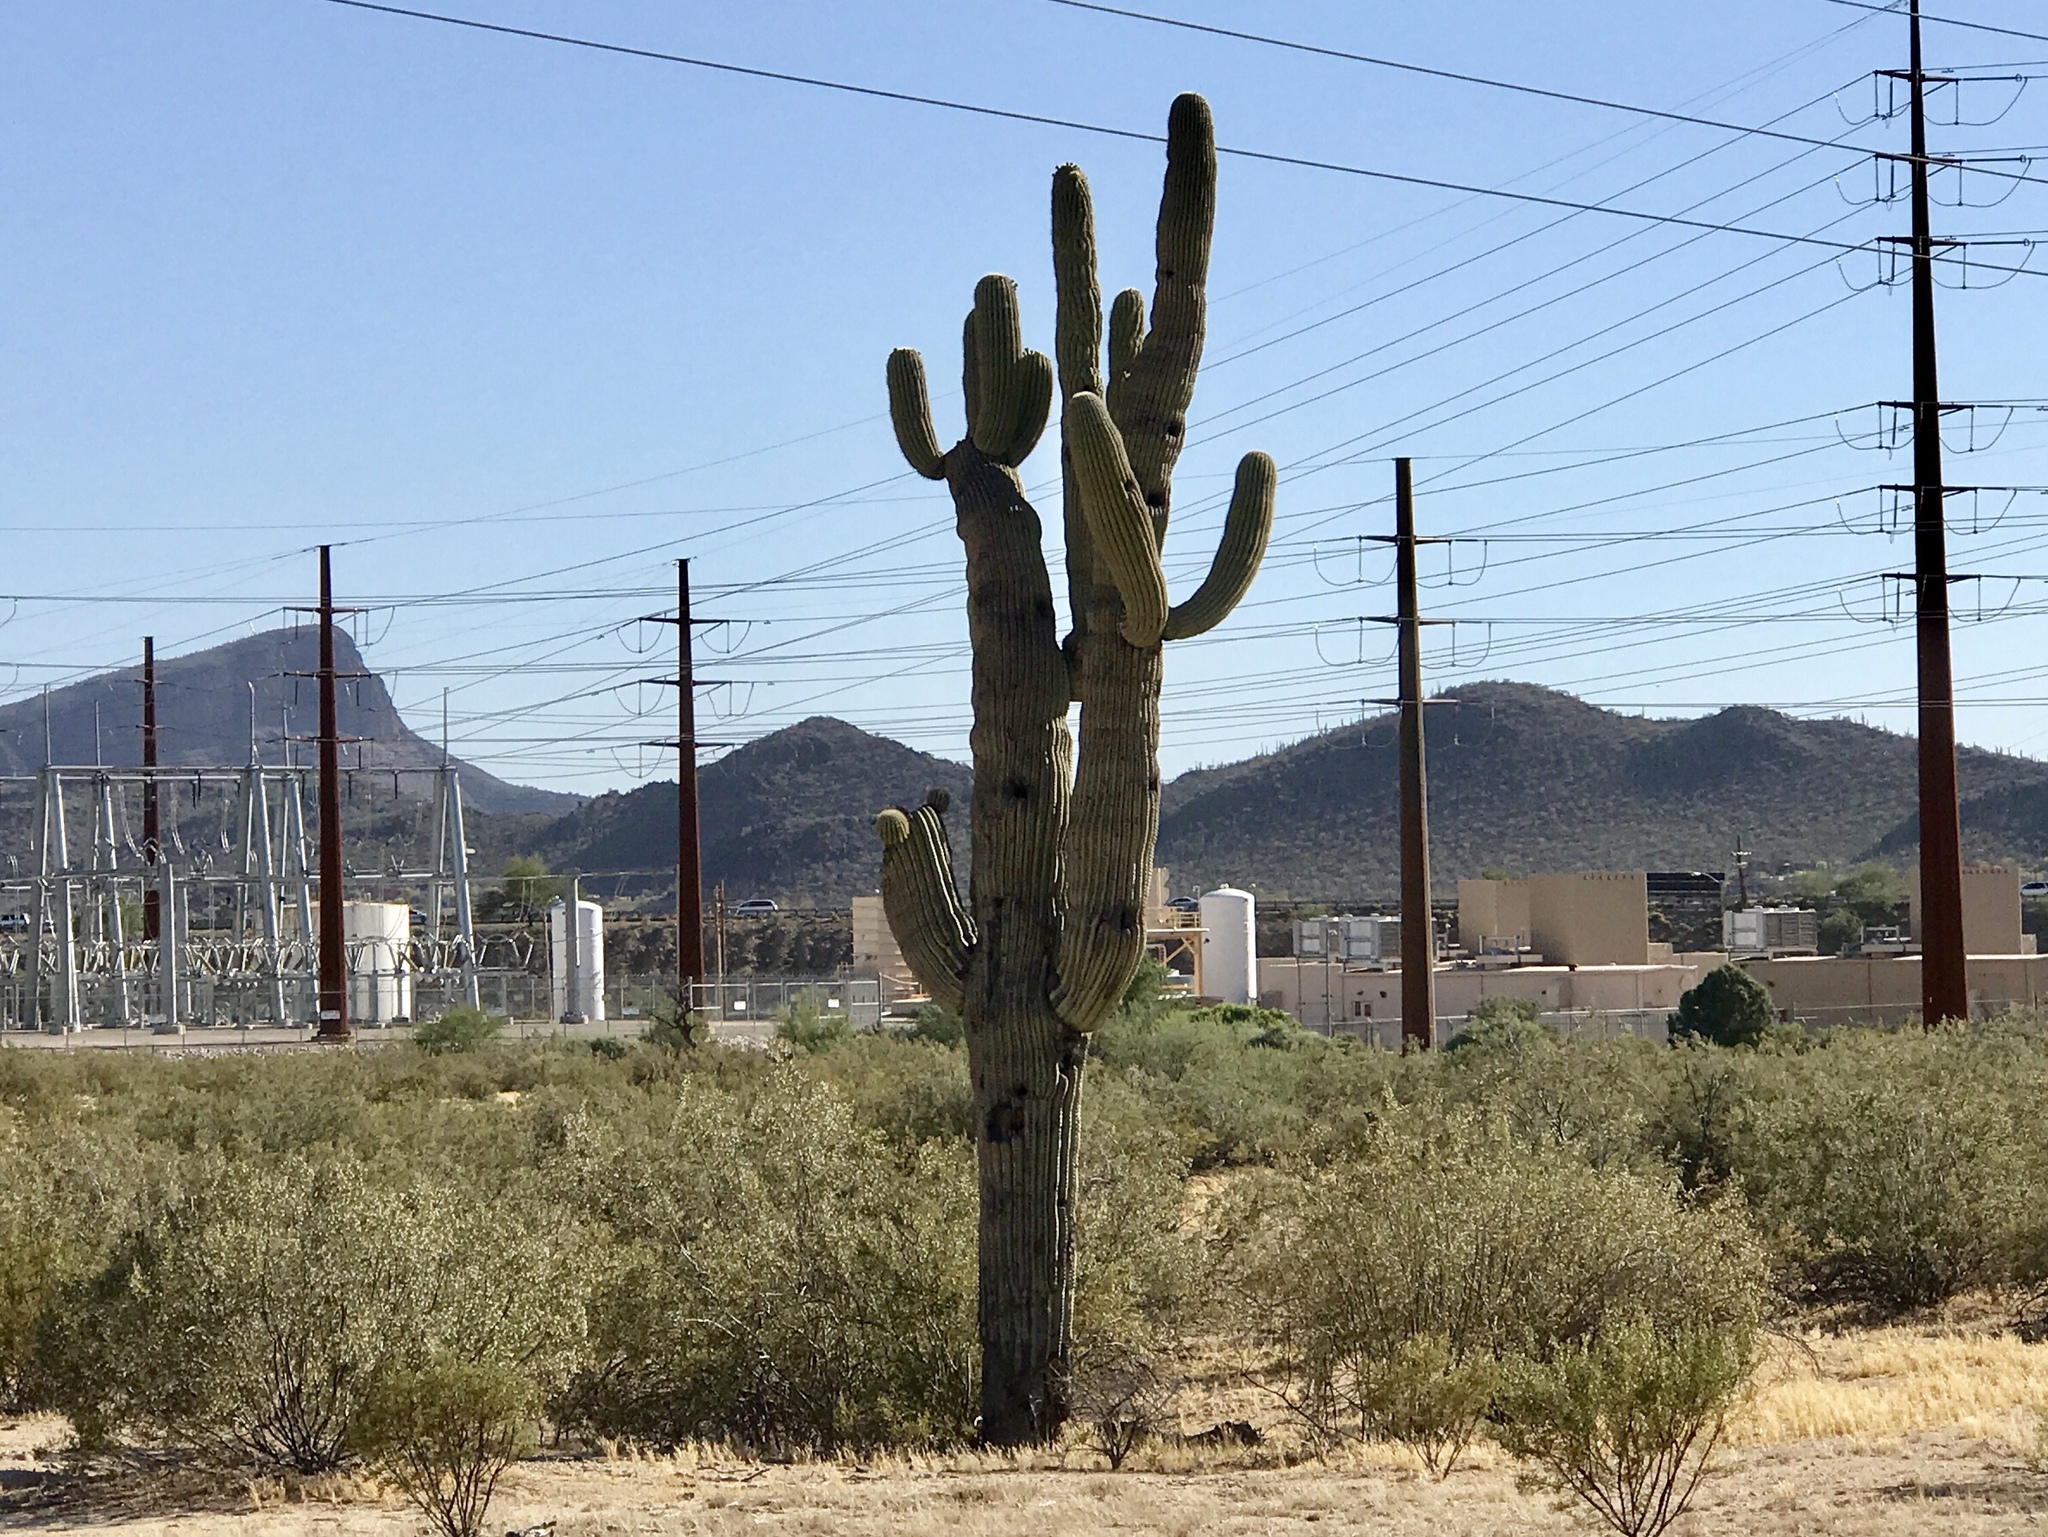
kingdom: Plantae
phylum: Tracheophyta
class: Magnoliopsida
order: Caryophyllales
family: Cactaceae
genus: Carnegiea
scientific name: Carnegiea gigantea
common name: Saguaro
